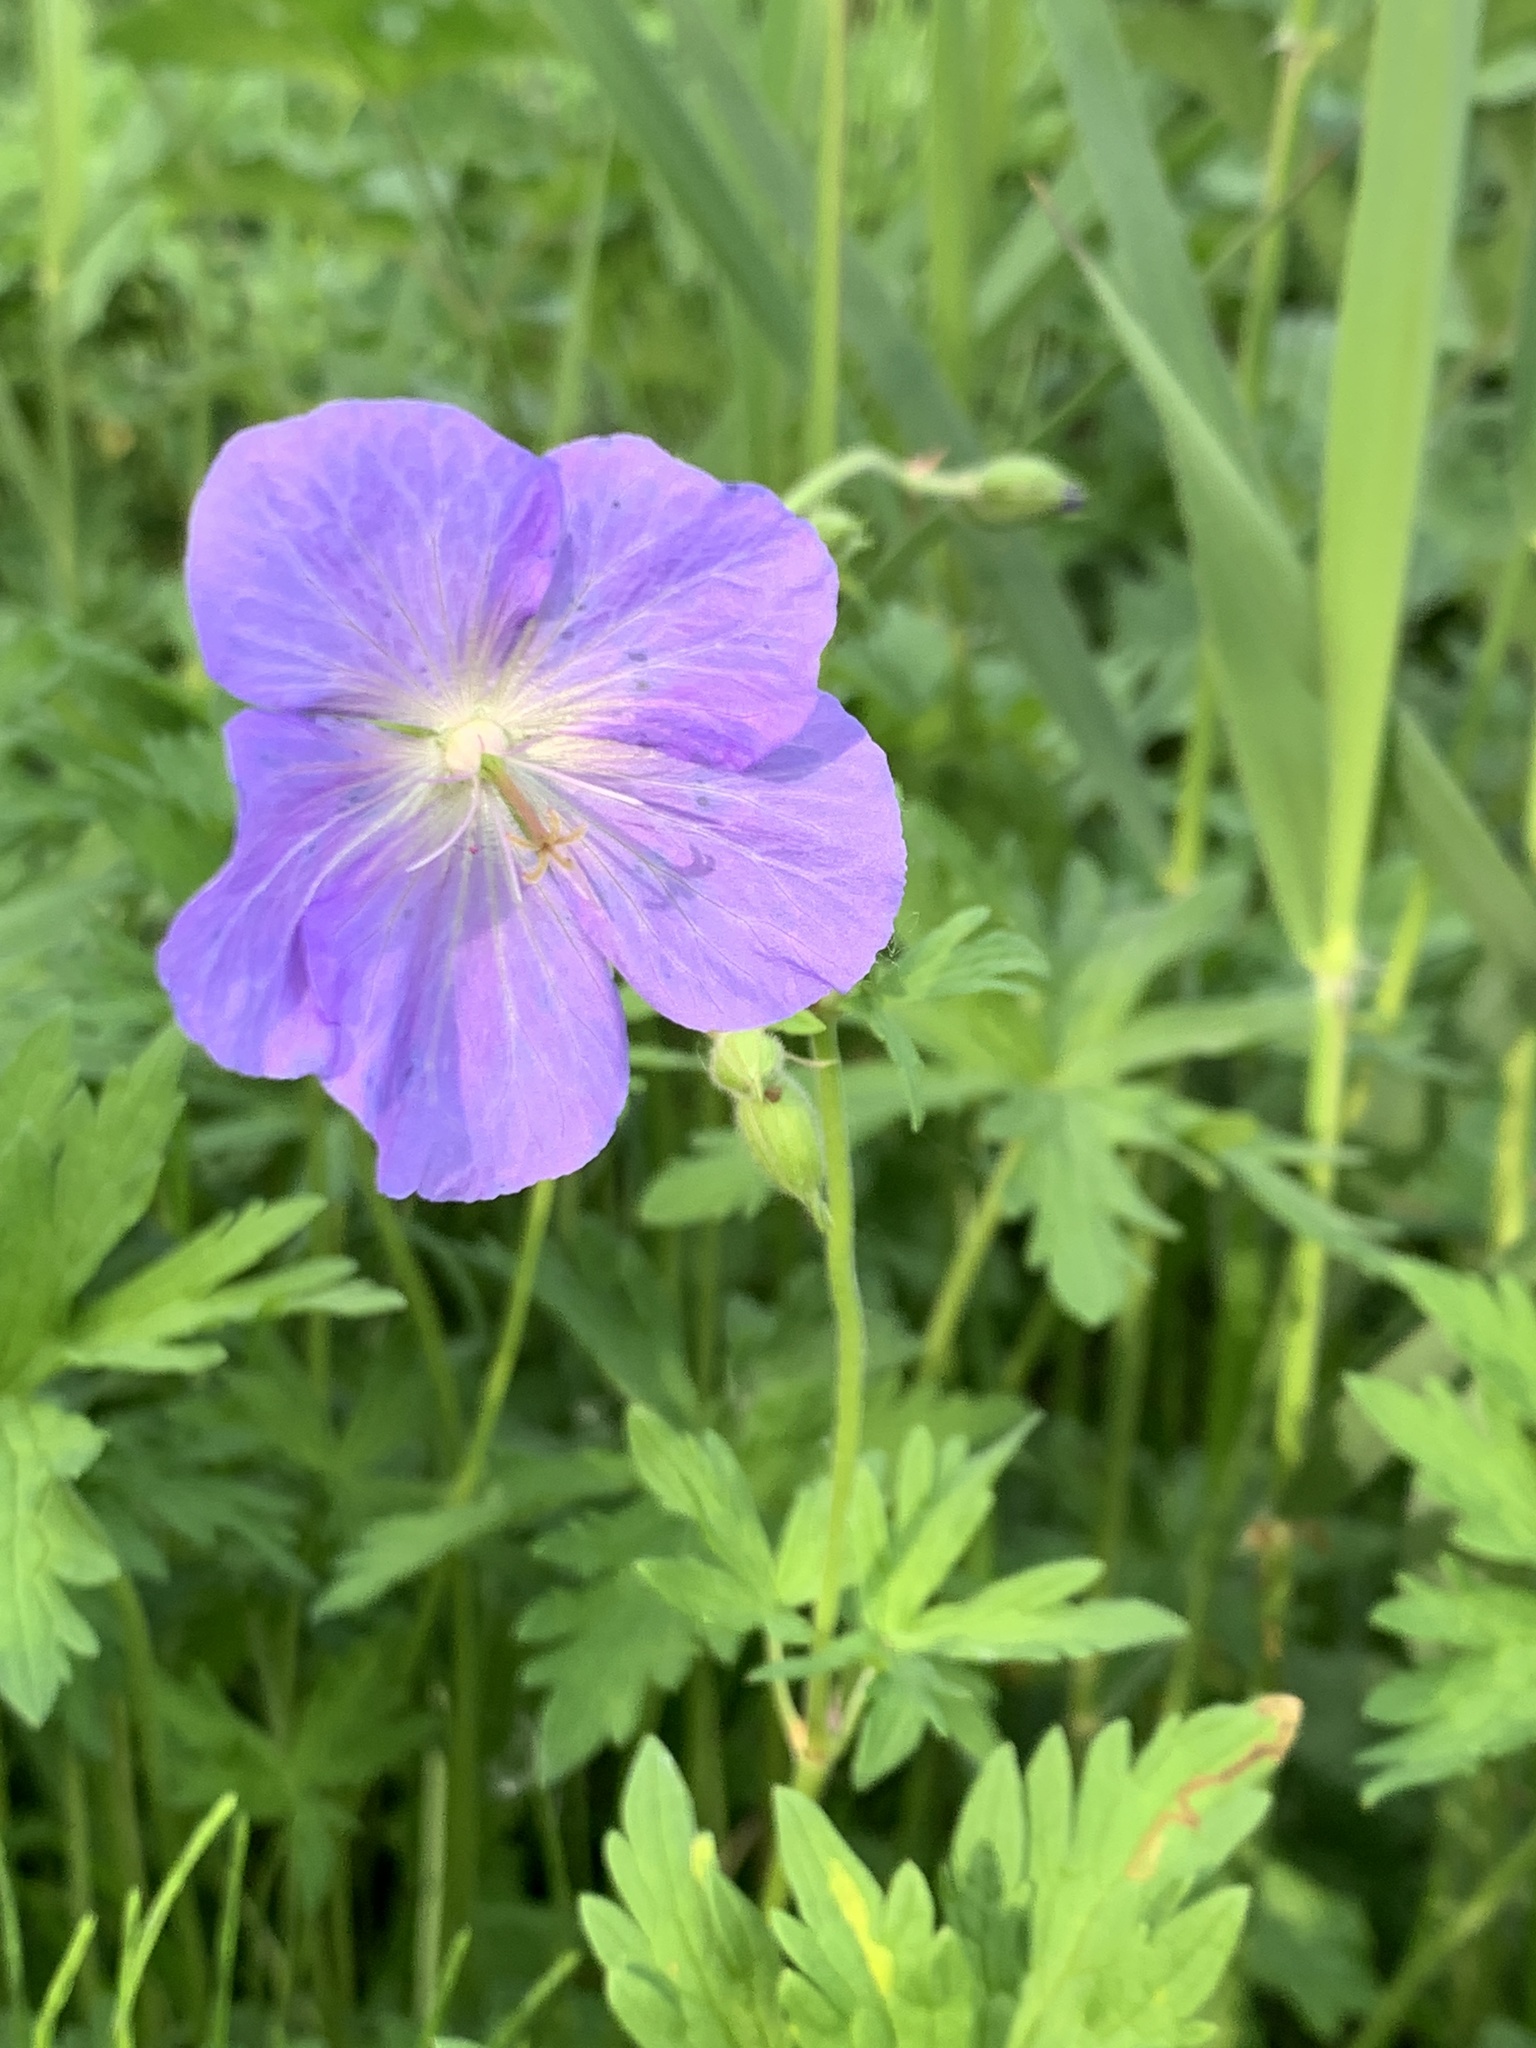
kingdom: Plantae
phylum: Tracheophyta
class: Magnoliopsida
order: Geraniales
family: Geraniaceae
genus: Geranium
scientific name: Geranium pratense
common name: Meadow crane's-bill
